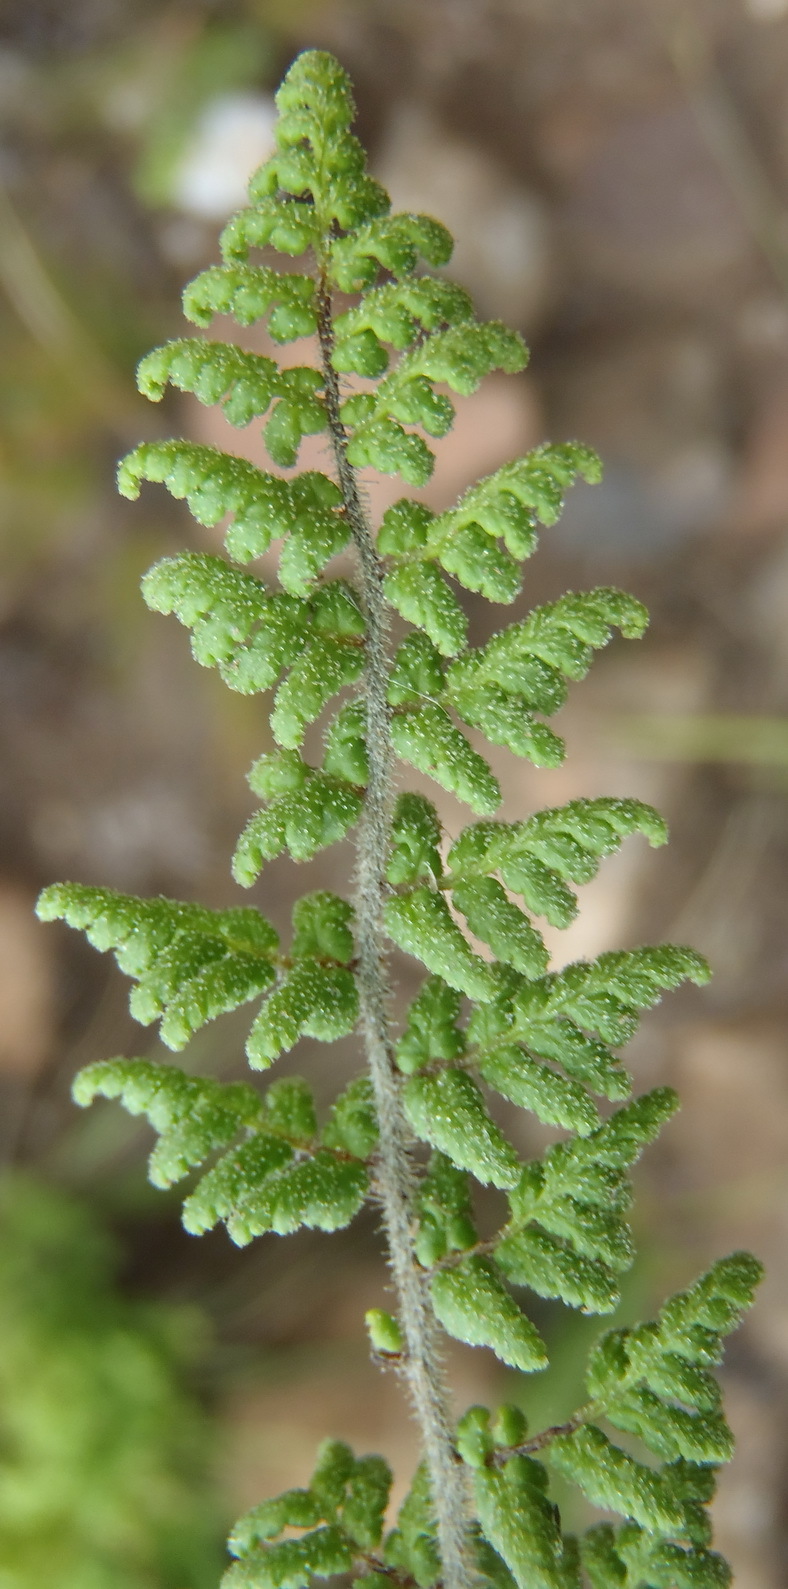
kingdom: Plantae
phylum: Tracheophyta
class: Polypodiopsida
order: Polypodiales
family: Pteridaceae
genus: Cheilanthes
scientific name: Cheilanthes hirta
